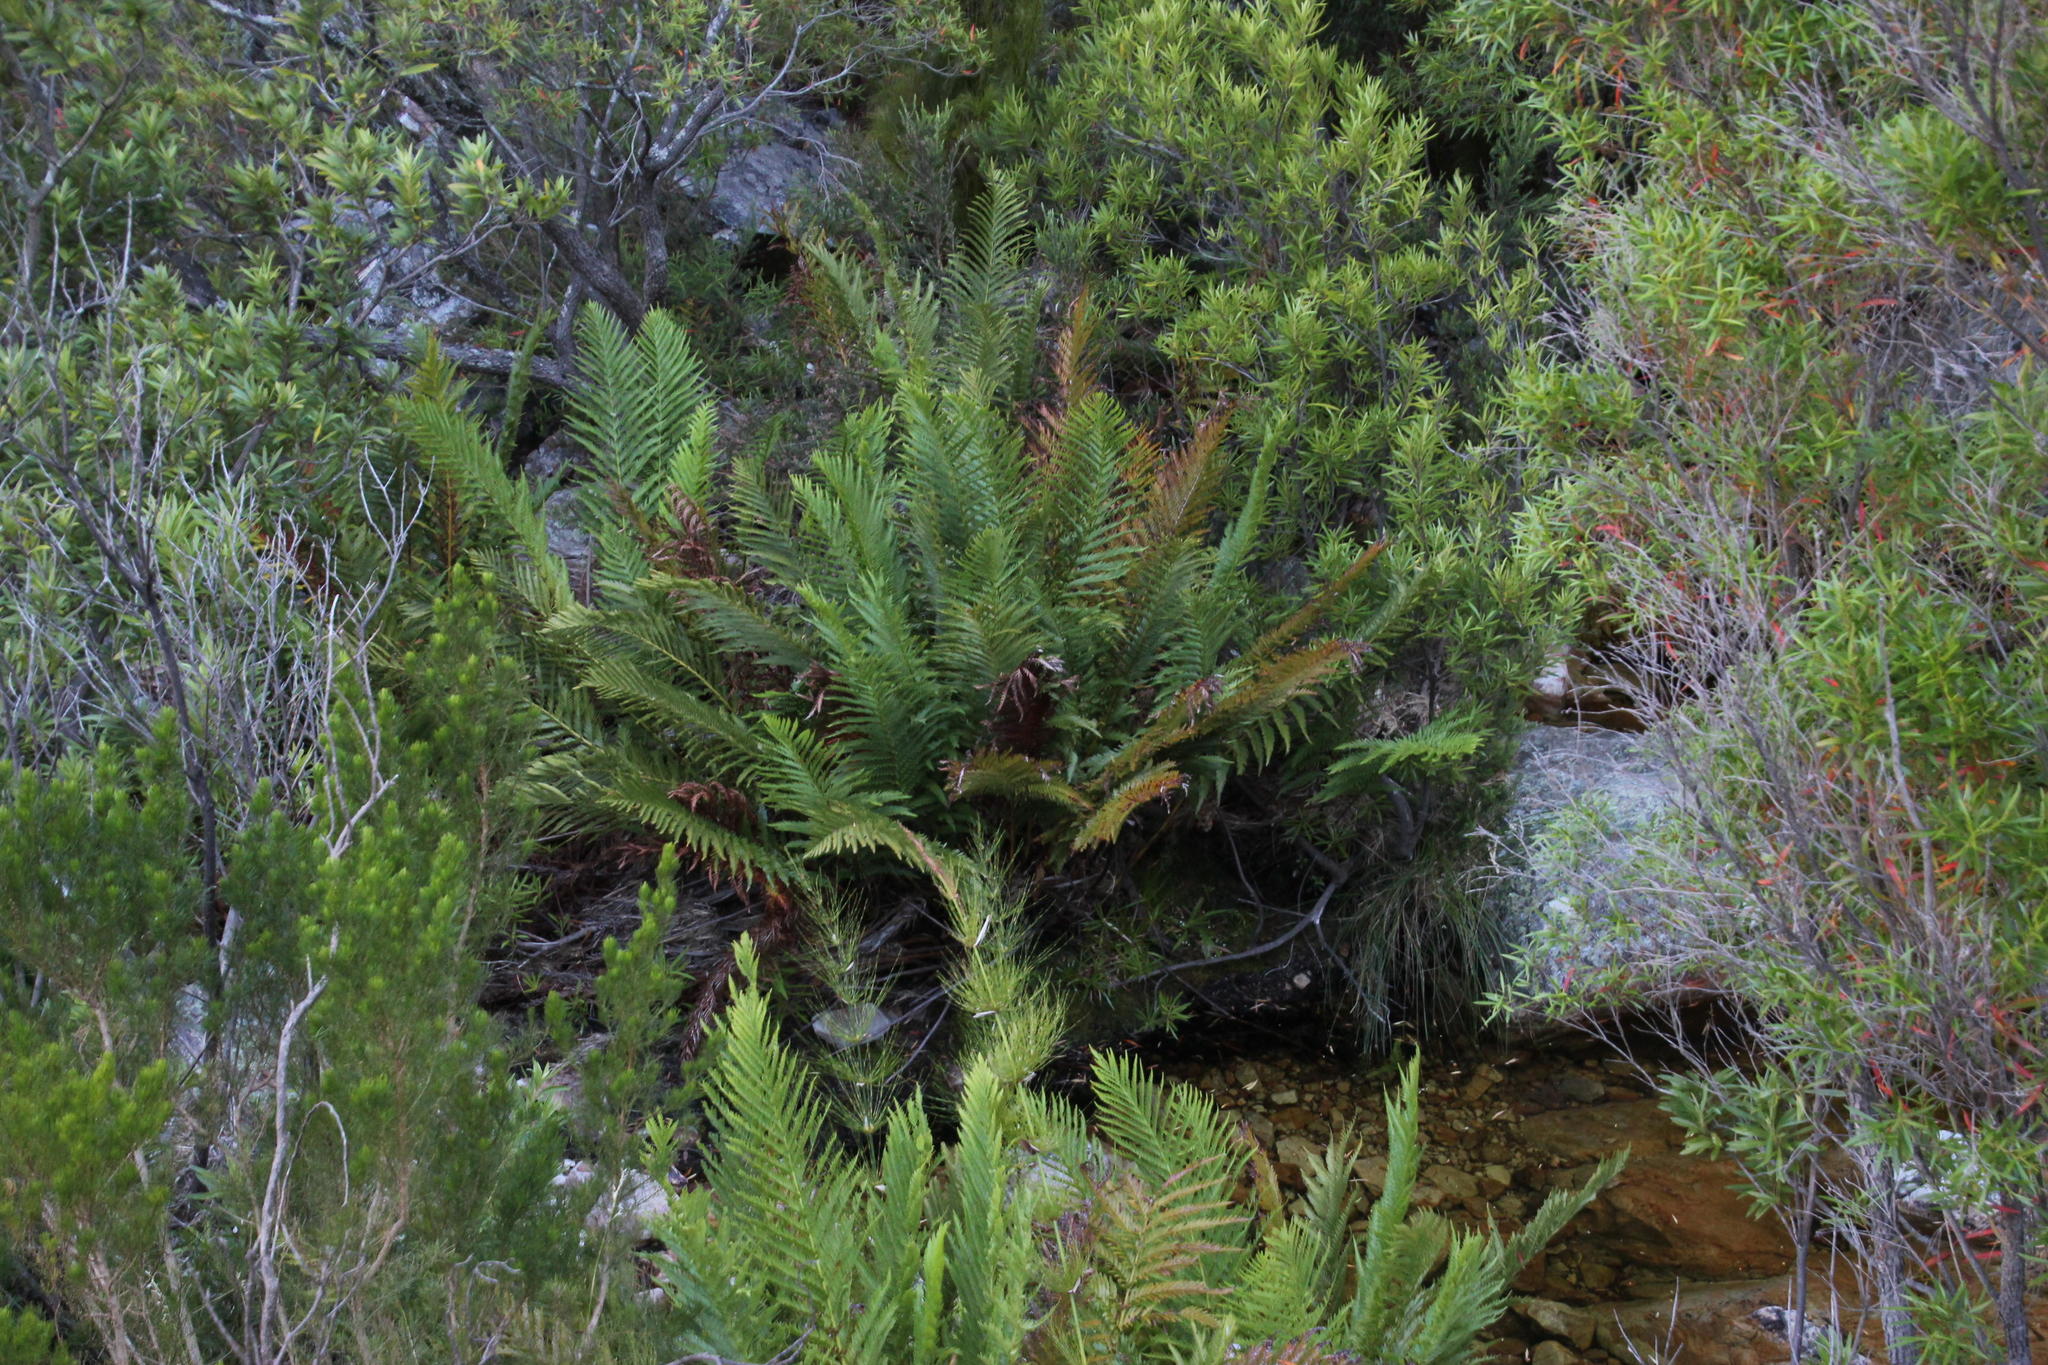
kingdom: Plantae
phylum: Tracheophyta
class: Polypodiopsida
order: Osmundales
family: Osmundaceae
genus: Todea
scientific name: Todea barbara
